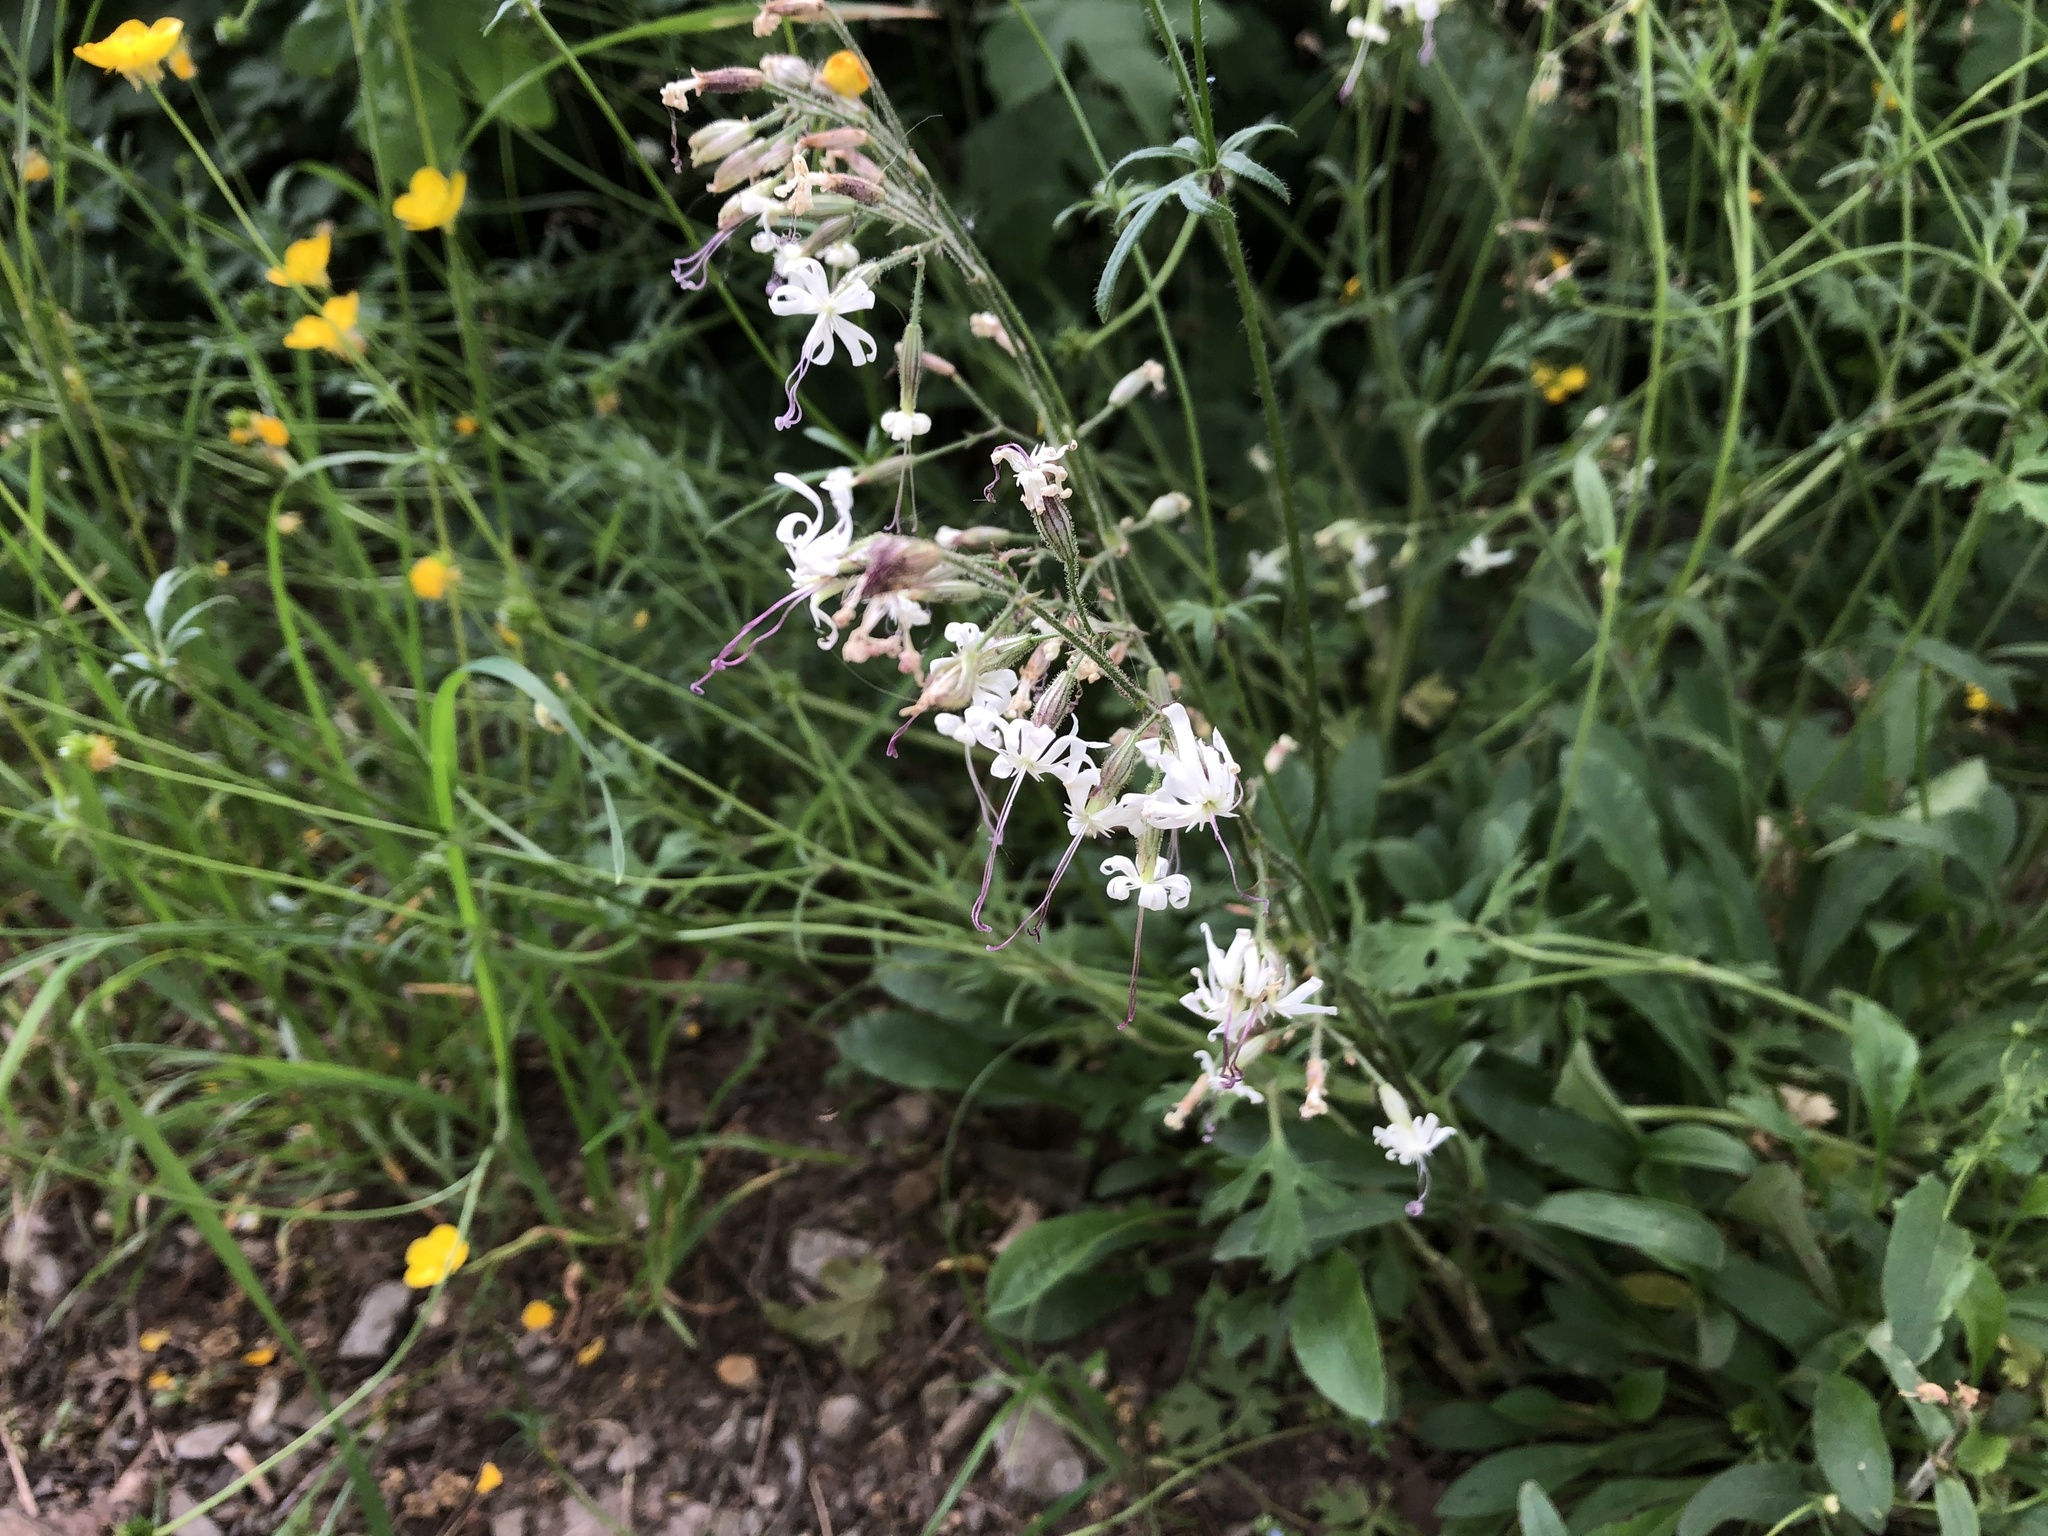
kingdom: Plantae
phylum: Tracheophyta
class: Magnoliopsida
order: Caryophyllales
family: Caryophyllaceae
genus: Silene
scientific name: Silene nutans
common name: Nottingham catchfly
